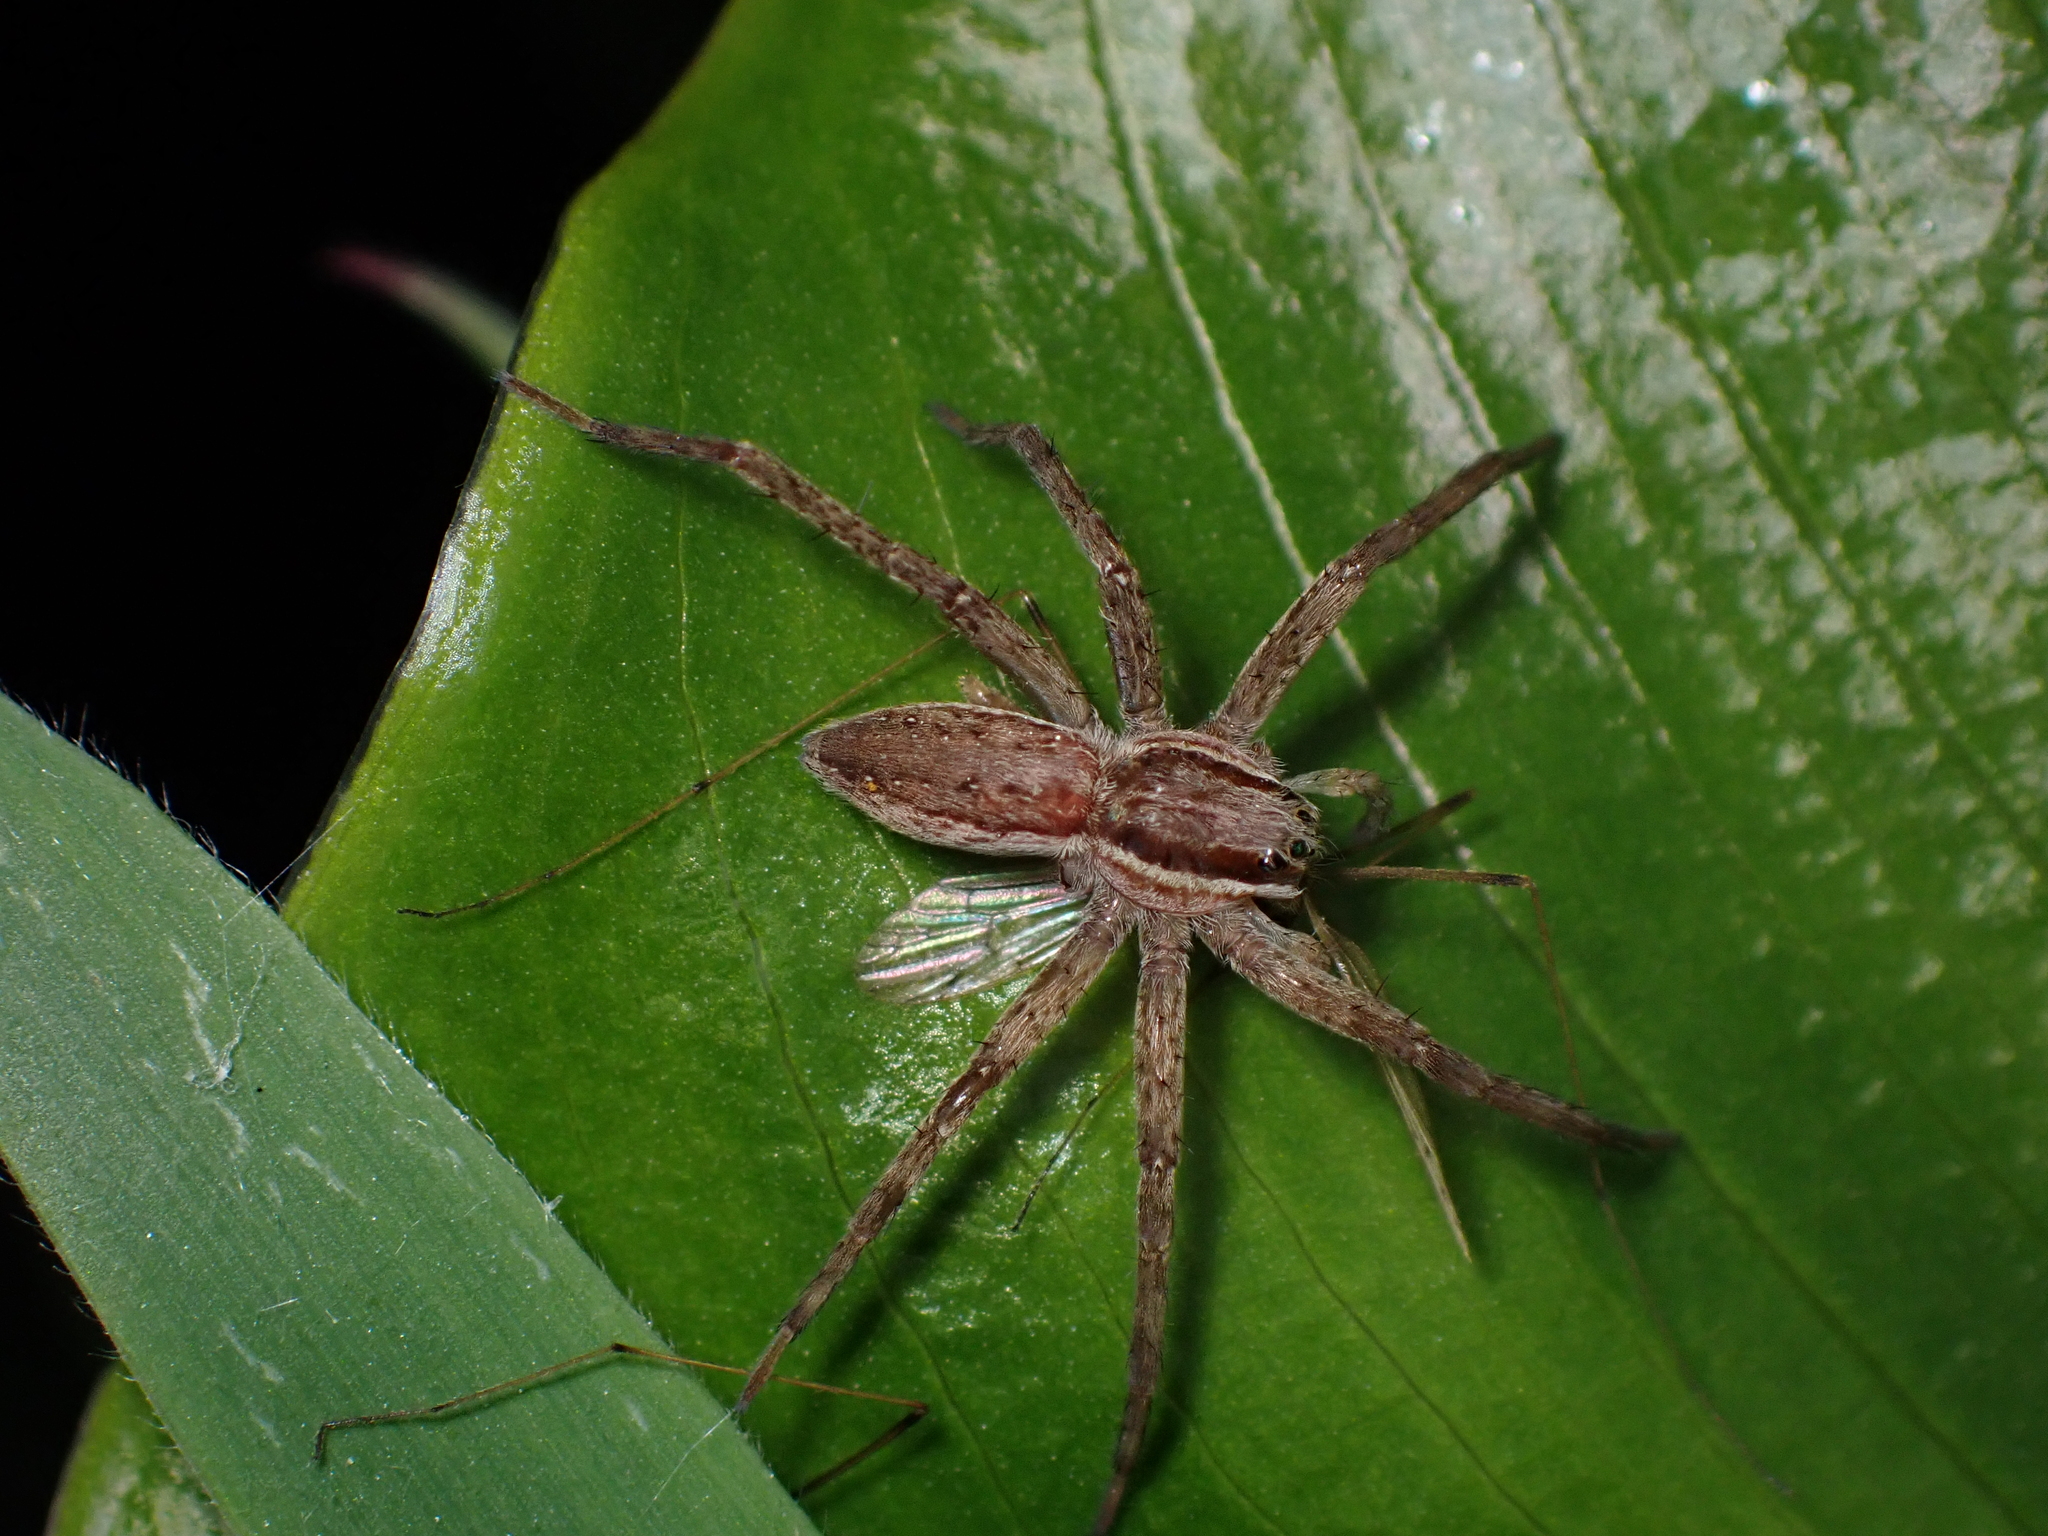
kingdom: Animalia
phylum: Arthropoda
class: Arachnida
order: Araneae
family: Pisauridae
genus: Dolomedes
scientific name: Dolomedes minor
